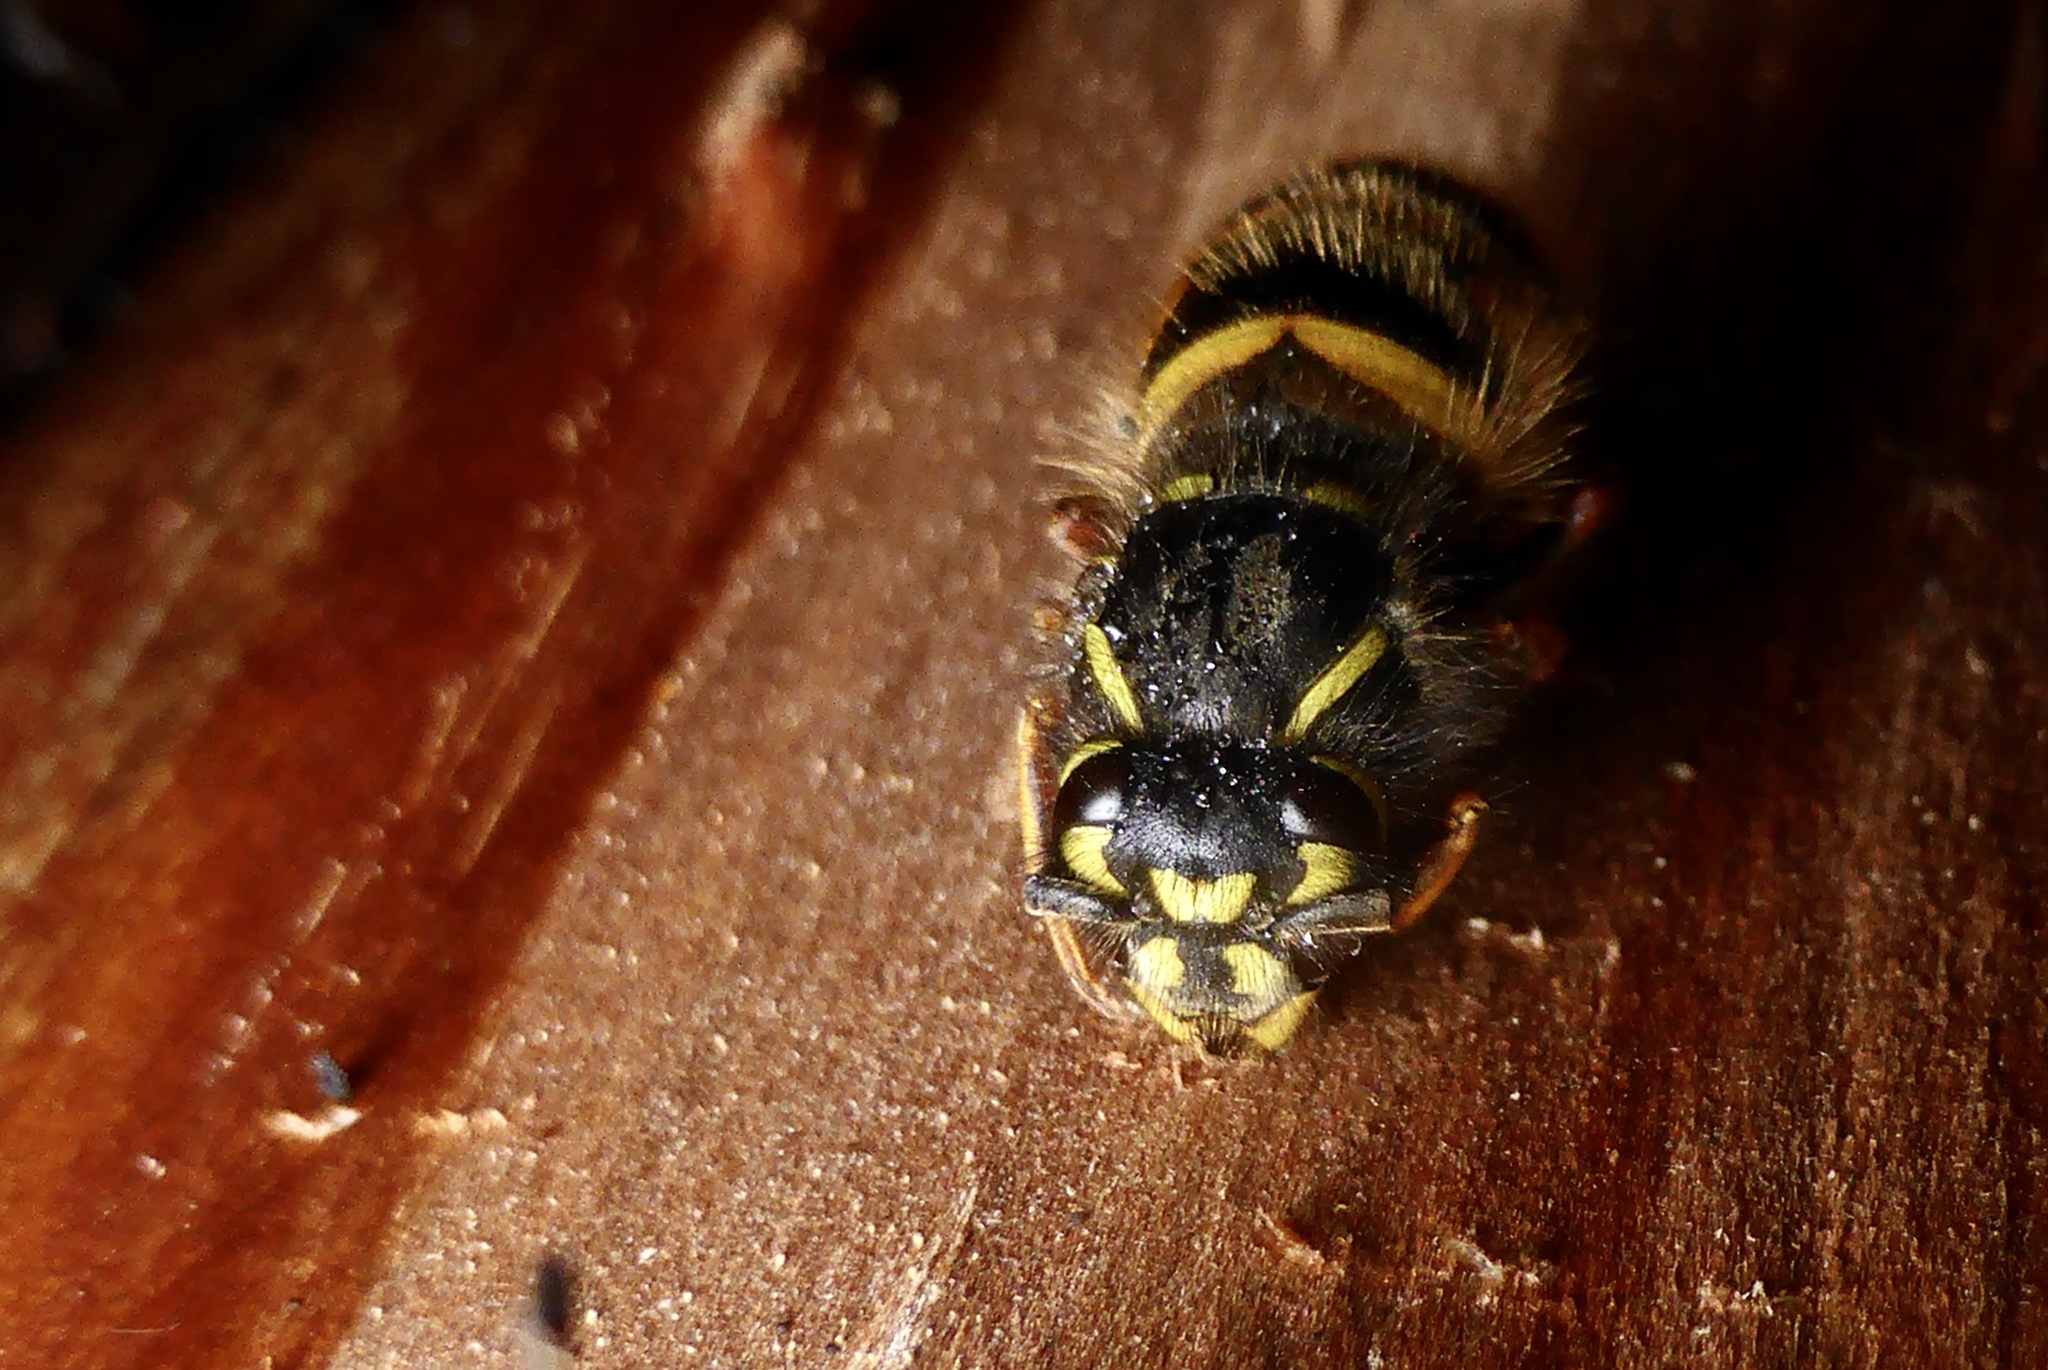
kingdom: Animalia
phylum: Arthropoda
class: Insecta
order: Hymenoptera
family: Vespidae
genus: Vespula
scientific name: Vespula vulgaris
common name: Common wasp
